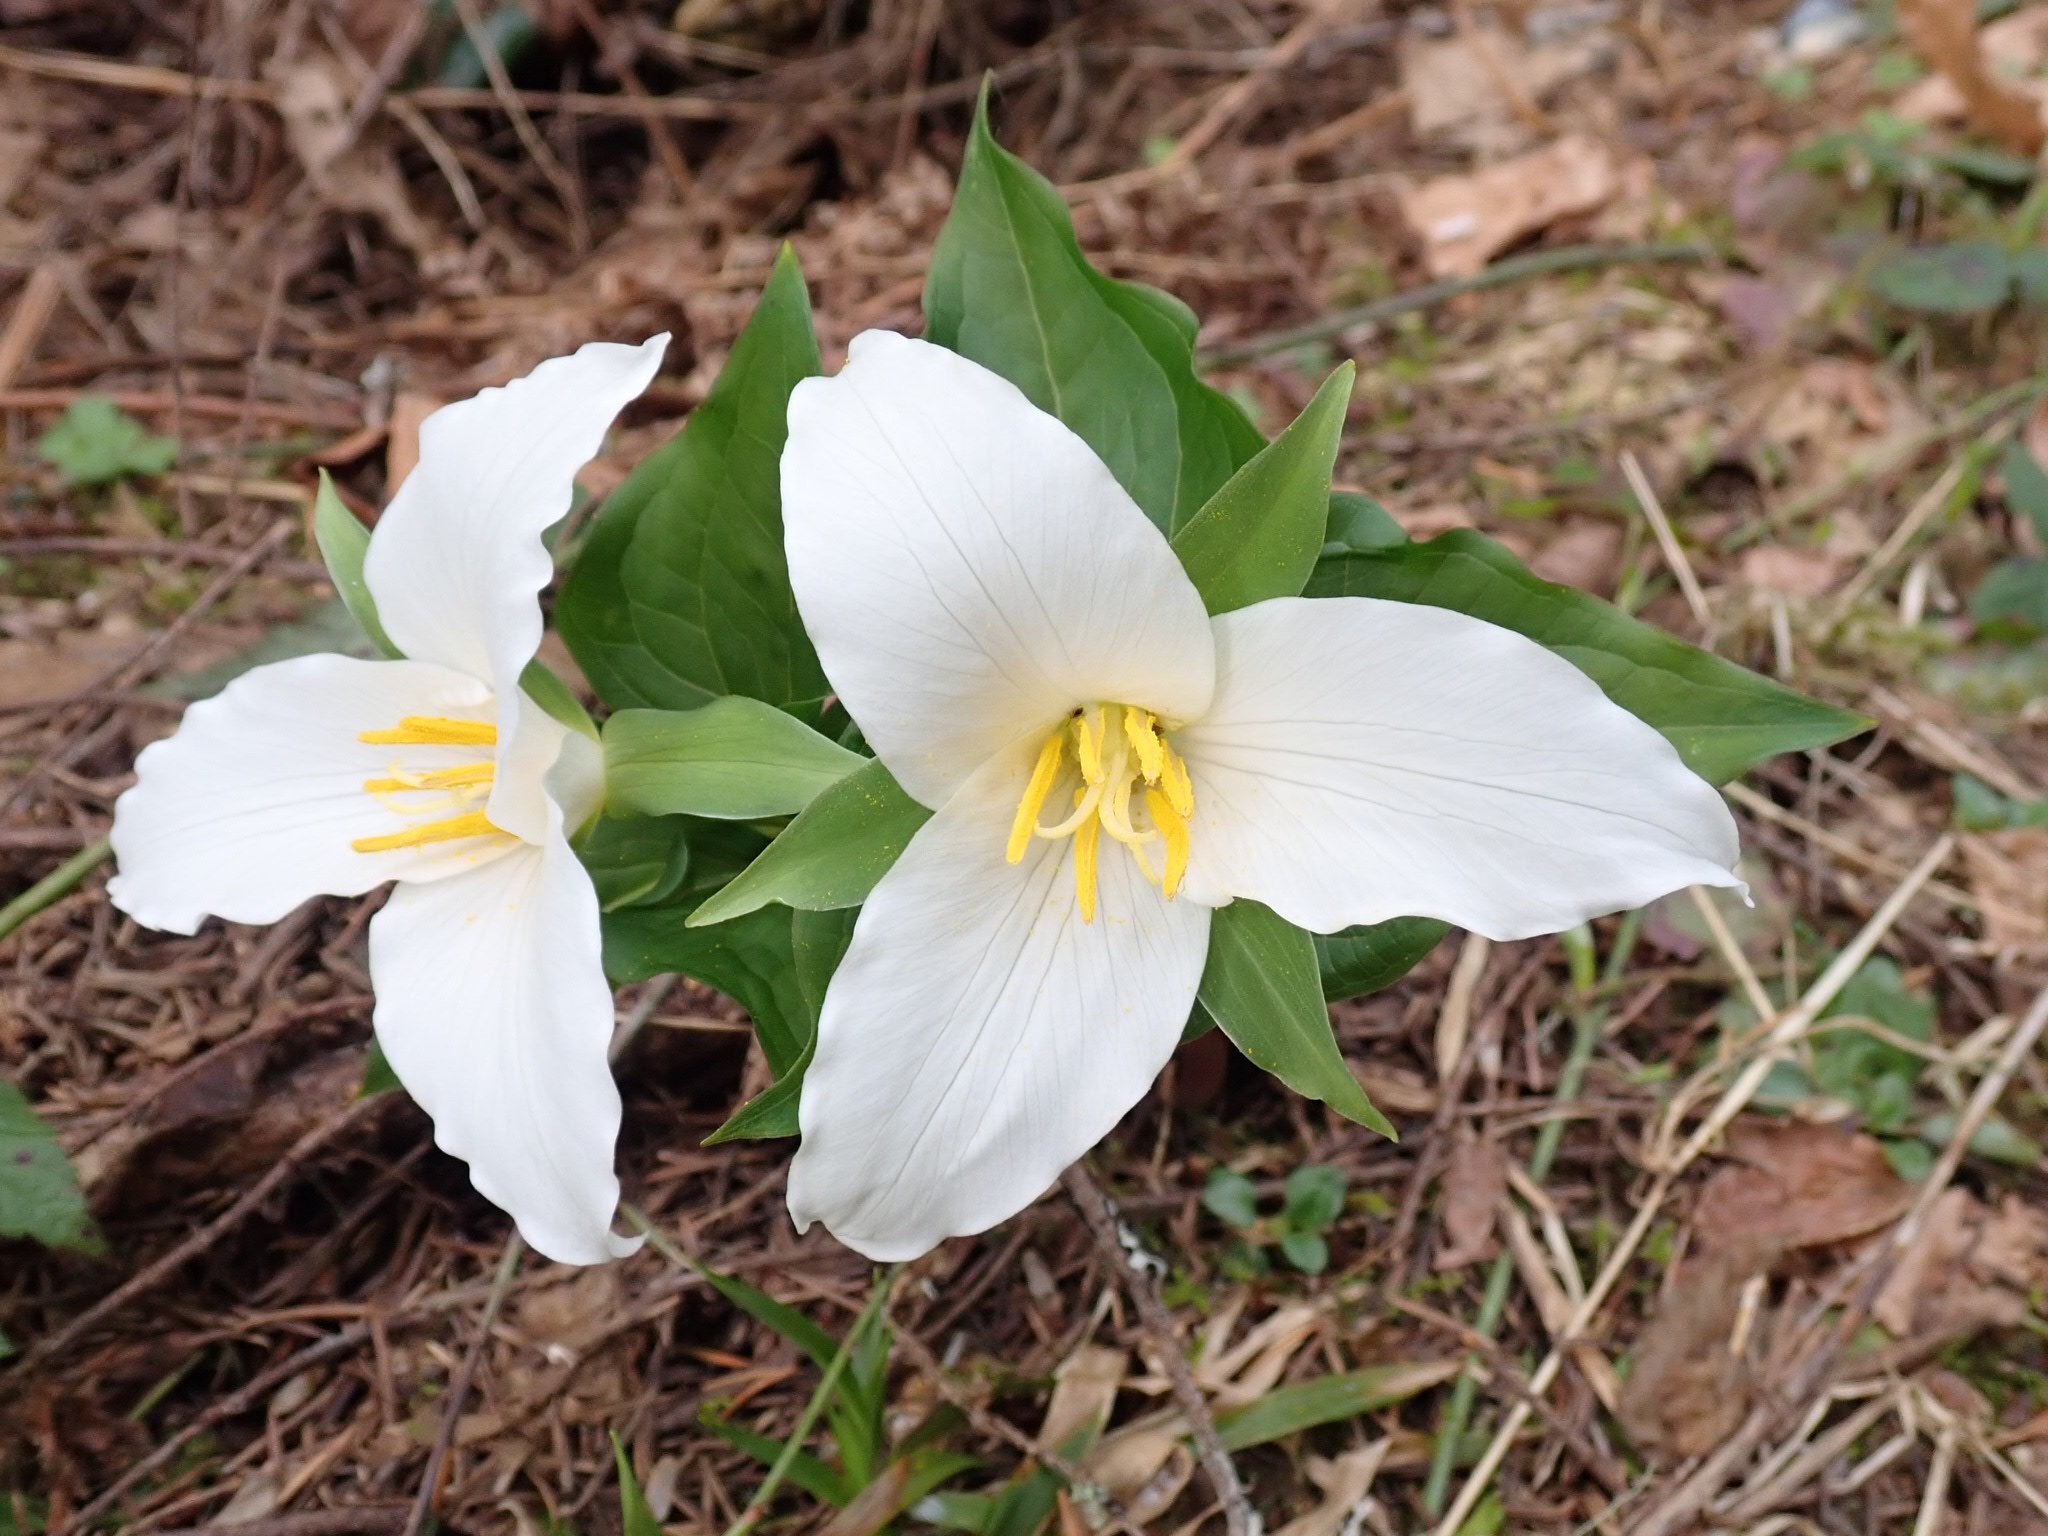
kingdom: Plantae
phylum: Tracheophyta
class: Liliopsida
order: Liliales
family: Melanthiaceae
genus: Trillium
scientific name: Trillium ovatum
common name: Pacific trillium
